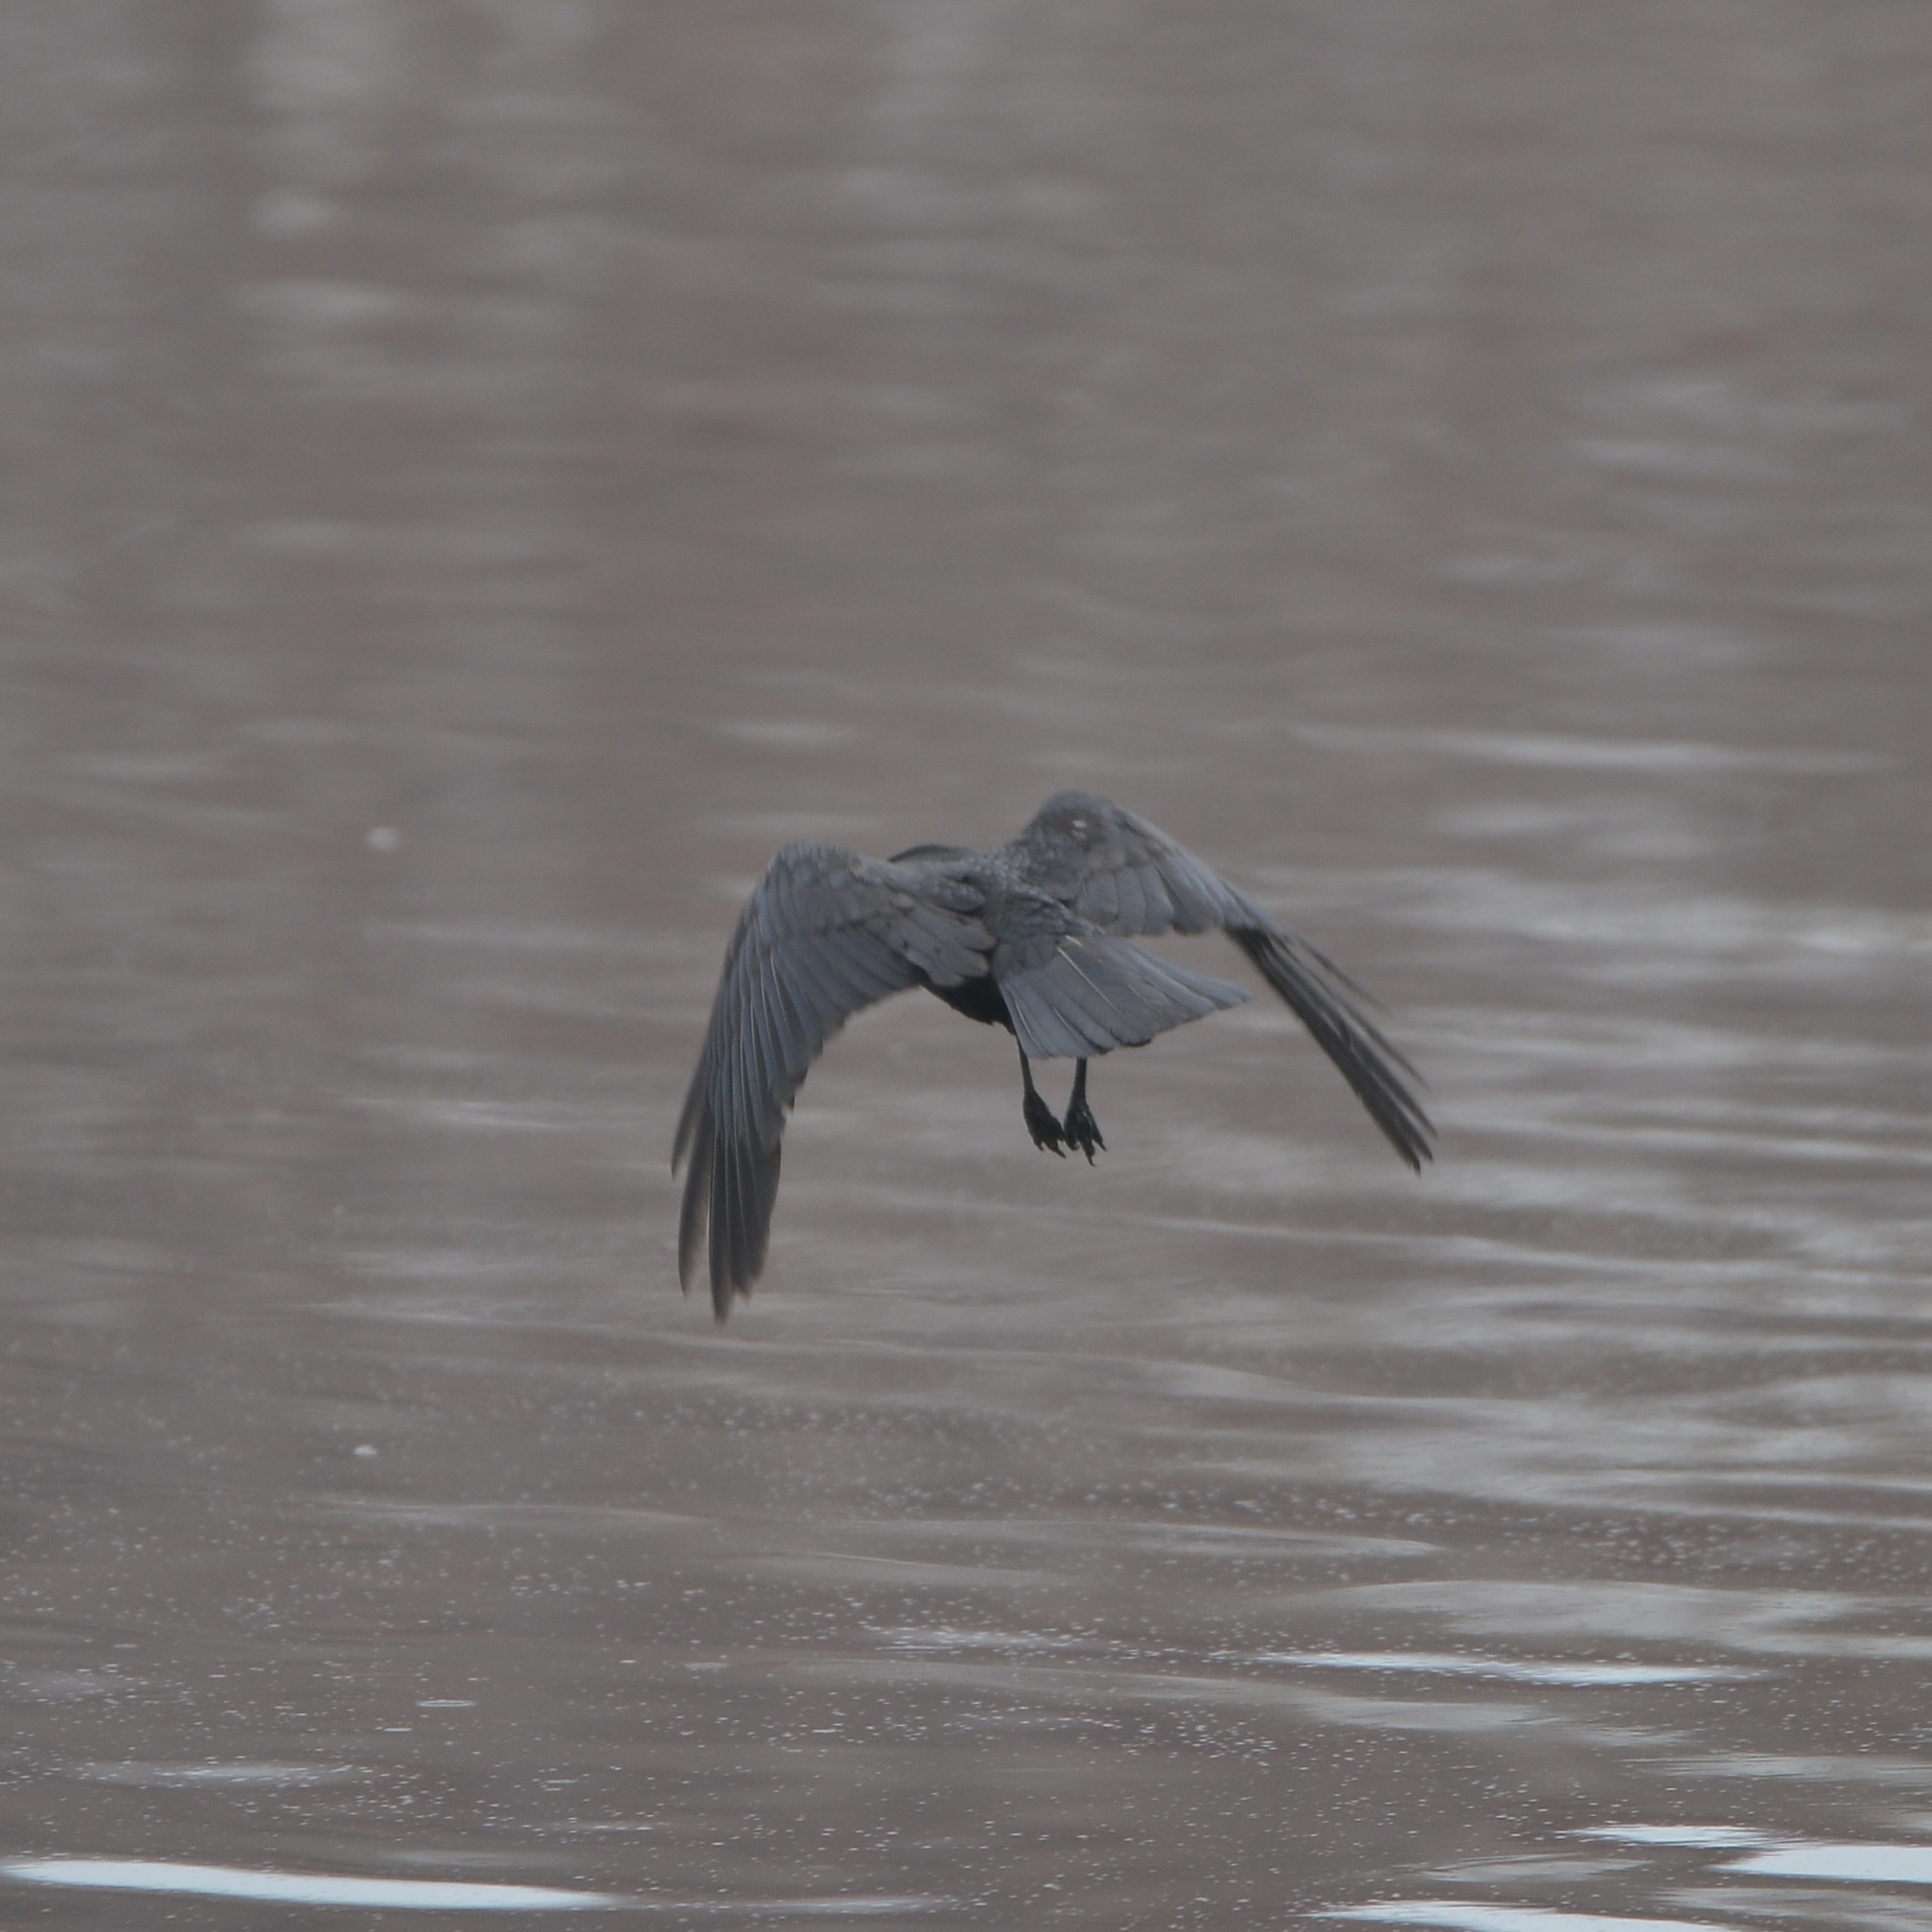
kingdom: Animalia
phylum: Chordata
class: Aves
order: Passeriformes
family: Corvidae
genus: Corvus
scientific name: Corvus corone
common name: Carrion crow
